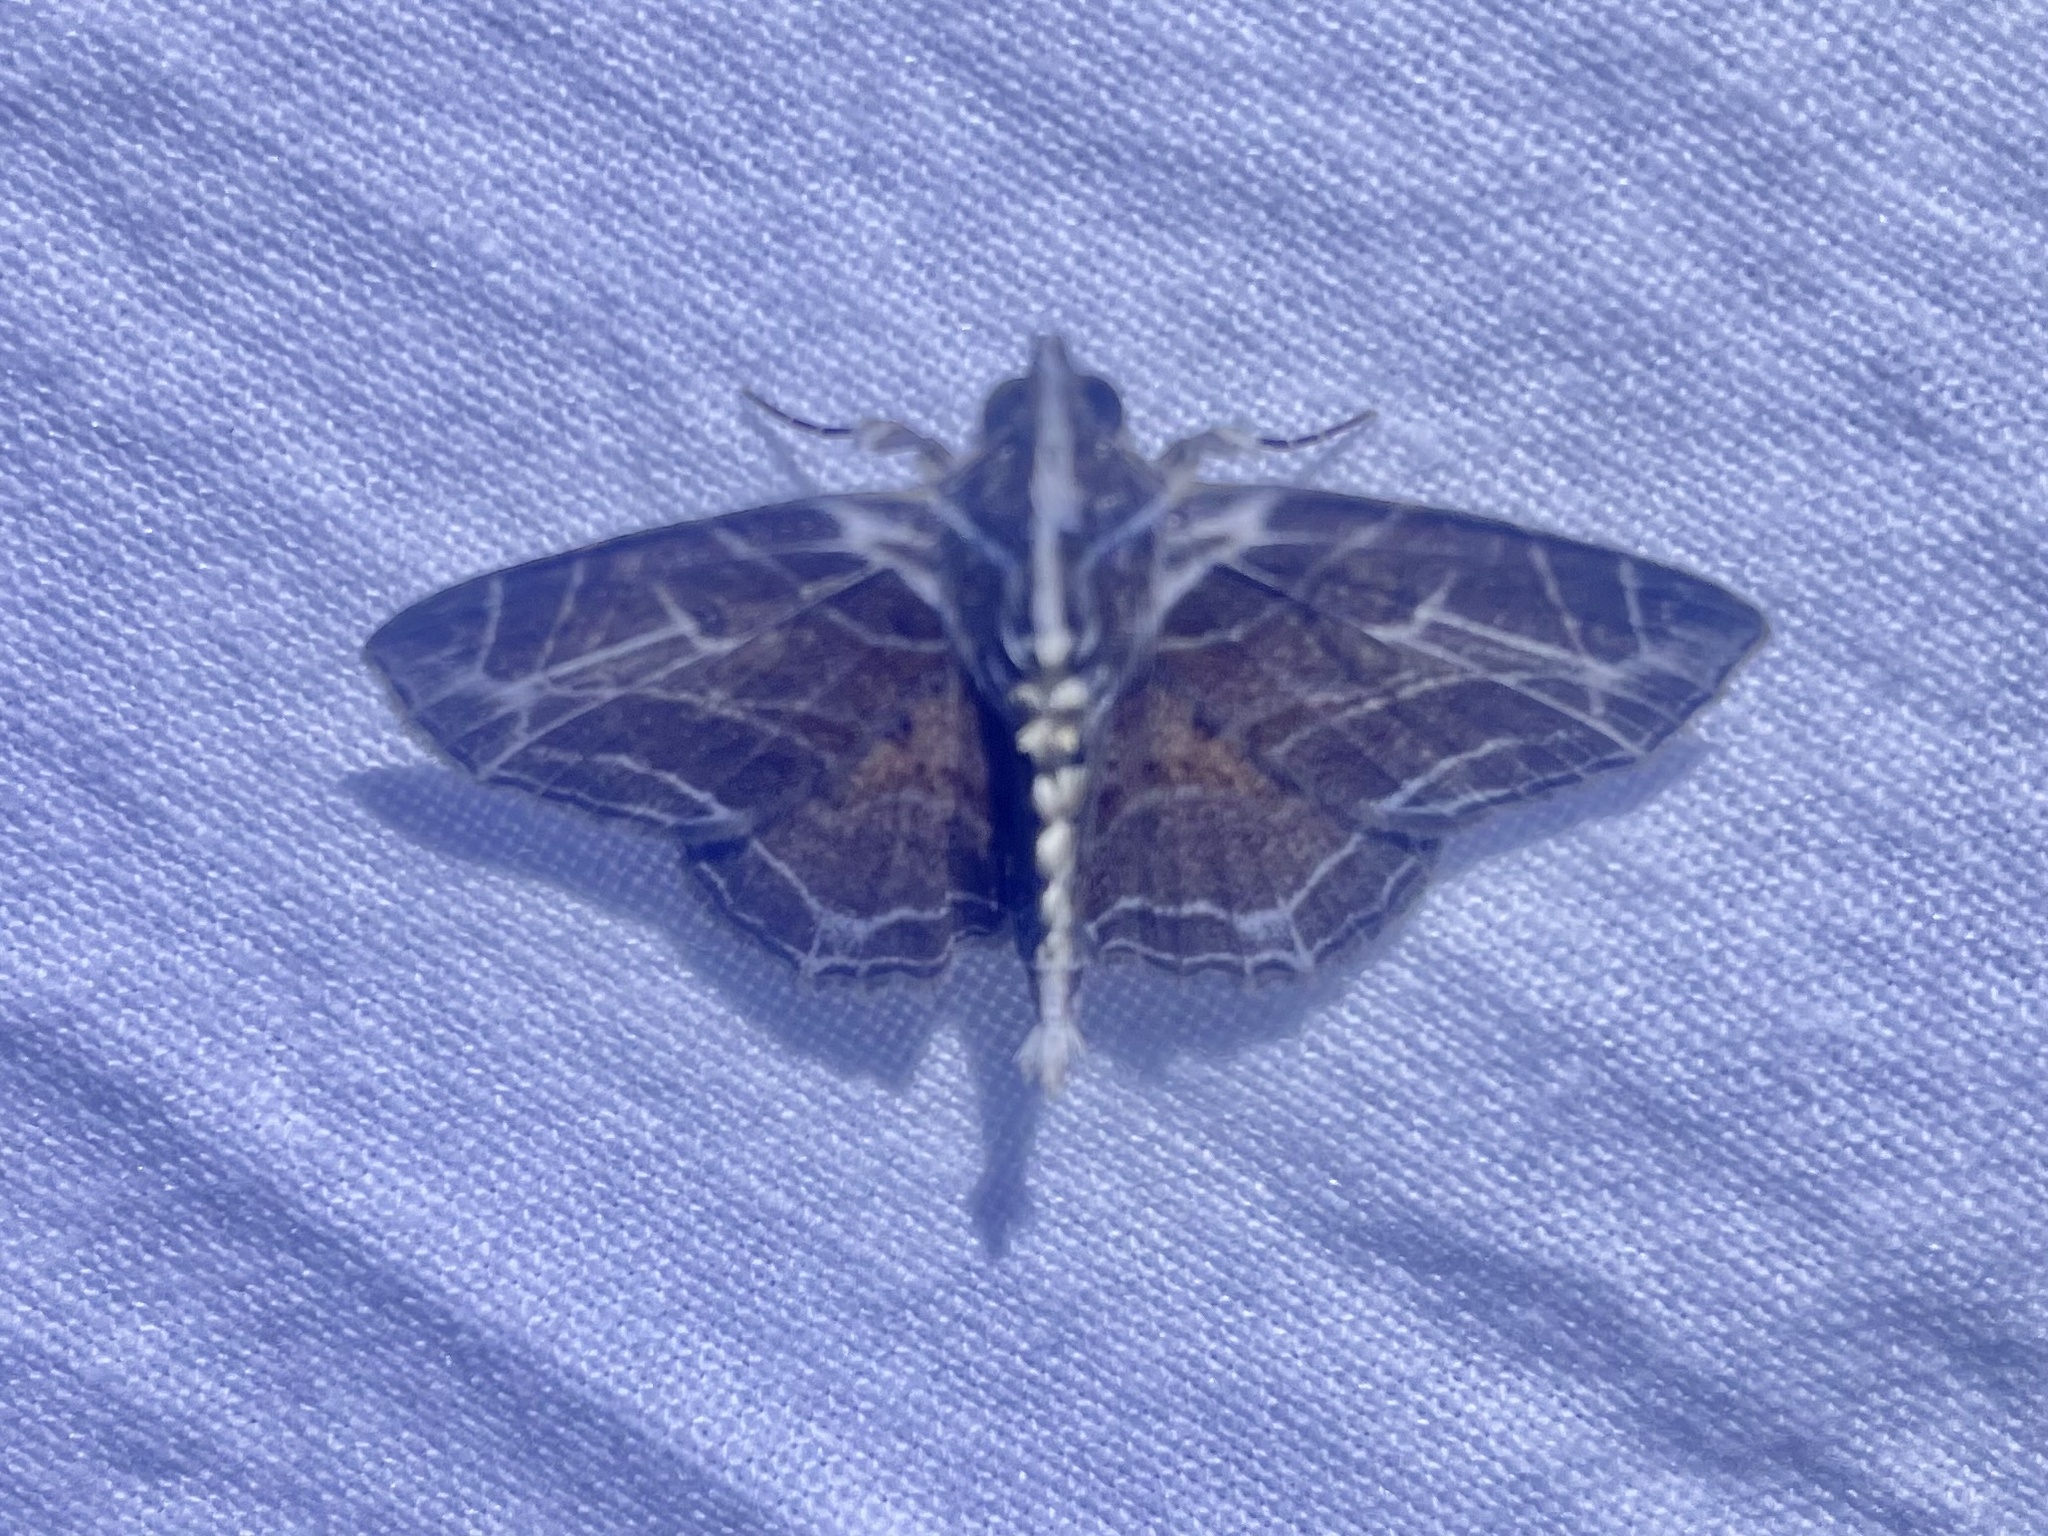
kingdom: Animalia
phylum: Arthropoda
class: Insecta
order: Lepidoptera
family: Erebidae
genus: Dolichosomastis
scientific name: Dolichosomastis leucogrammica
